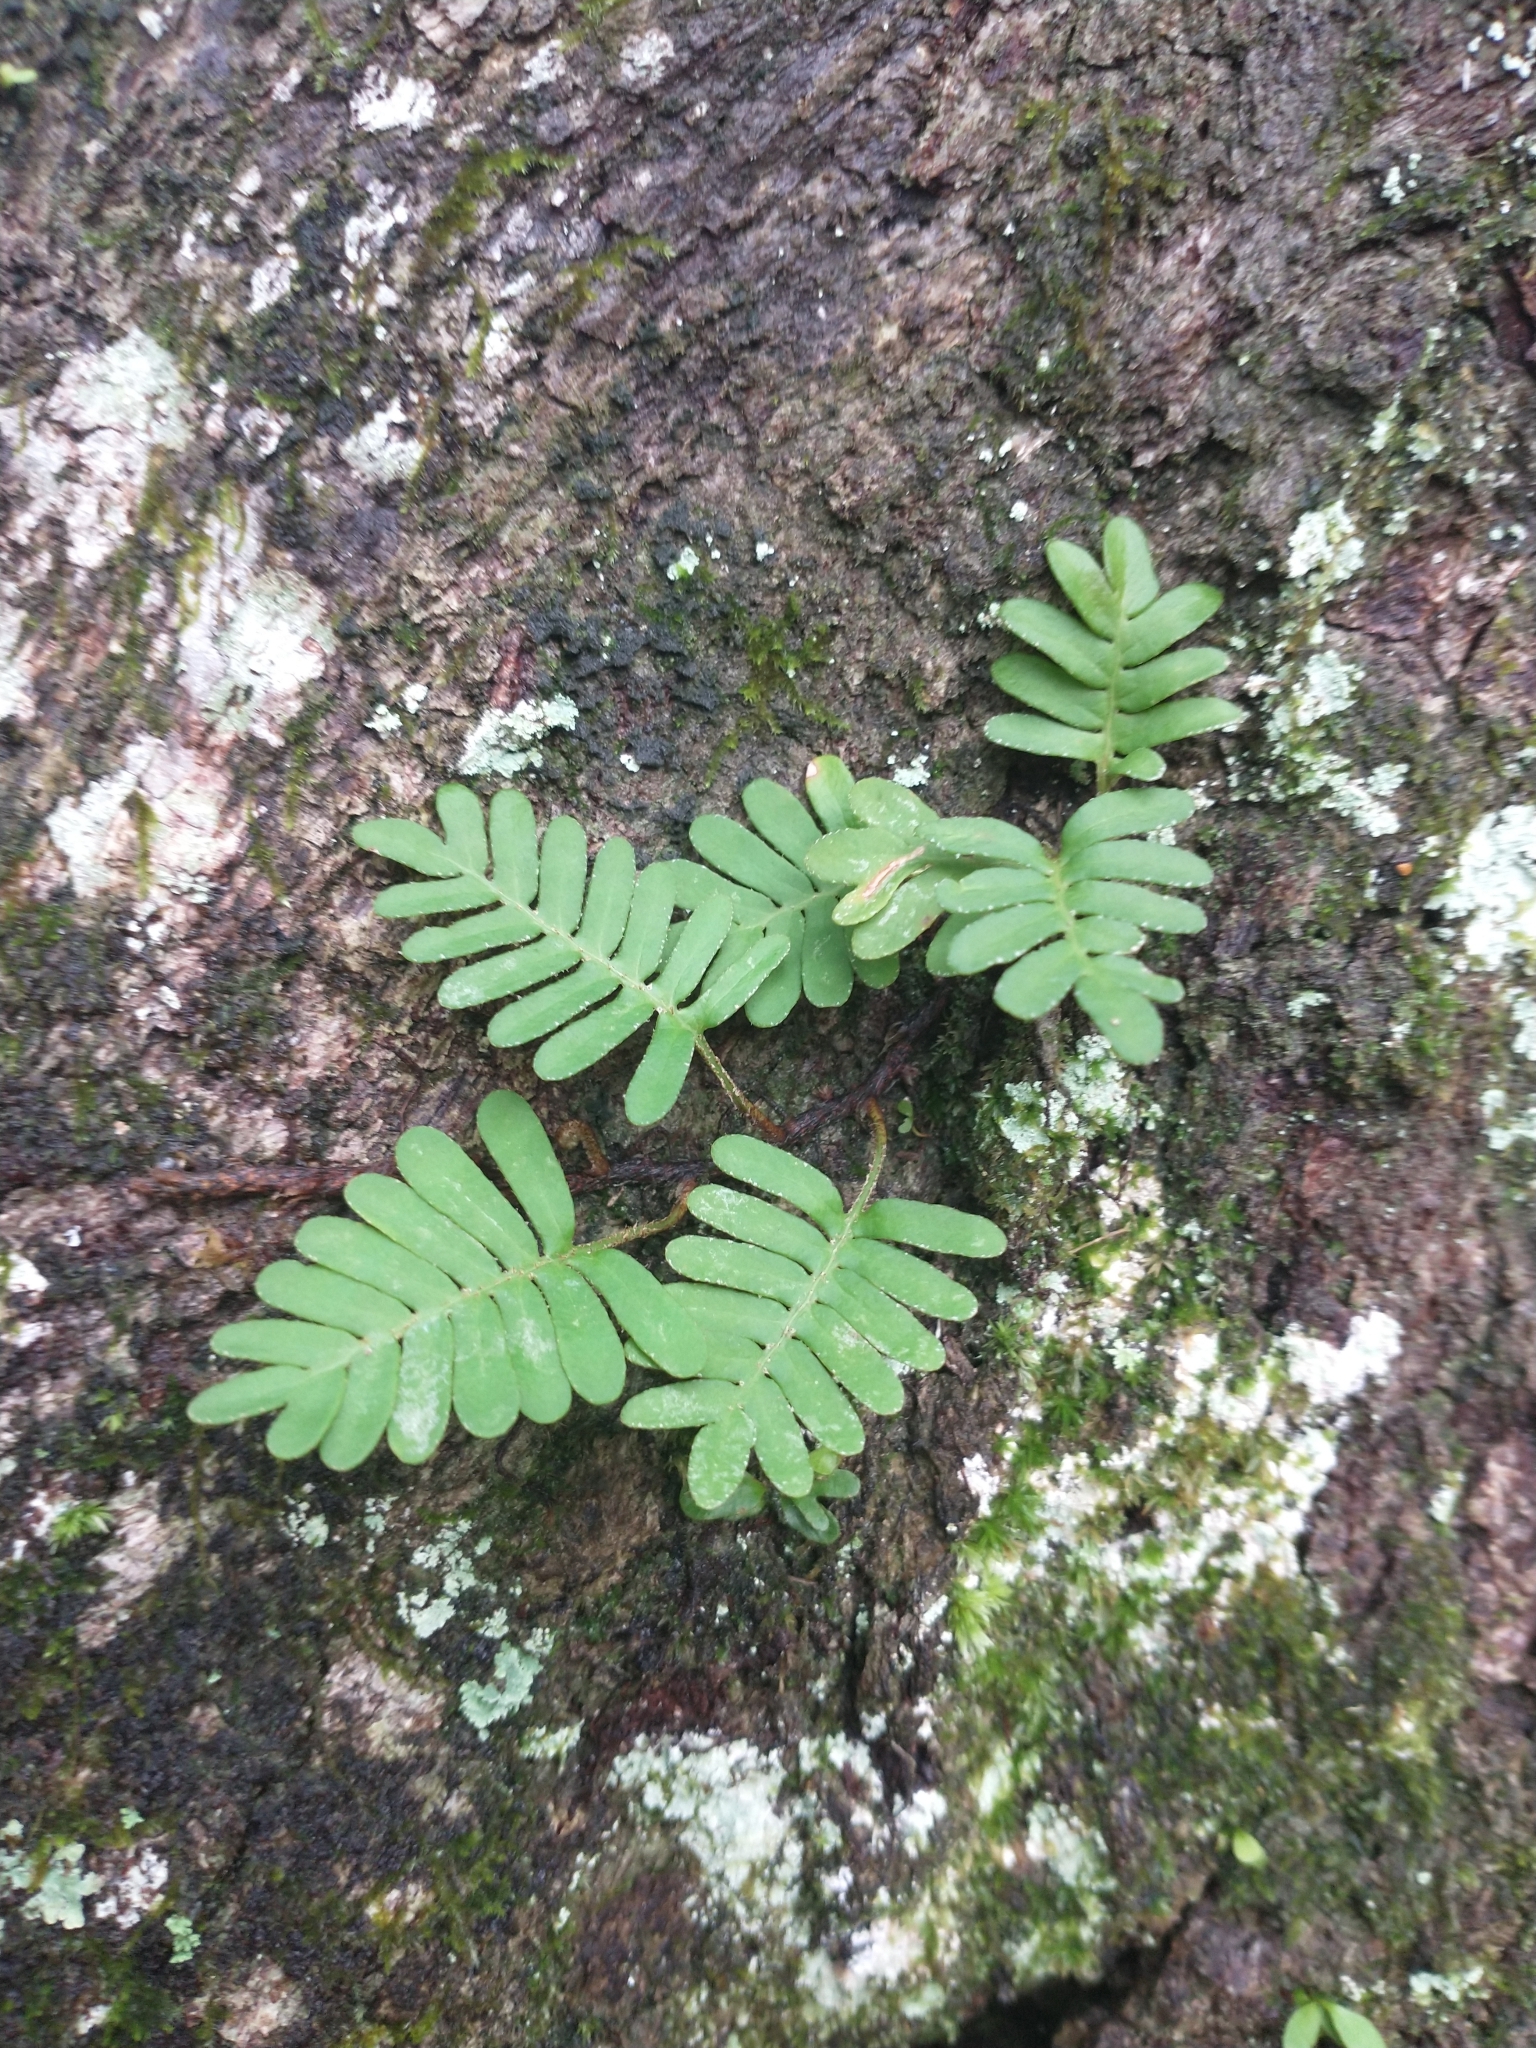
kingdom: Plantae
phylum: Tracheophyta
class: Polypodiopsida
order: Polypodiales
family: Polypodiaceae
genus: Pleopeltis
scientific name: Pleopeltis michauxiana
